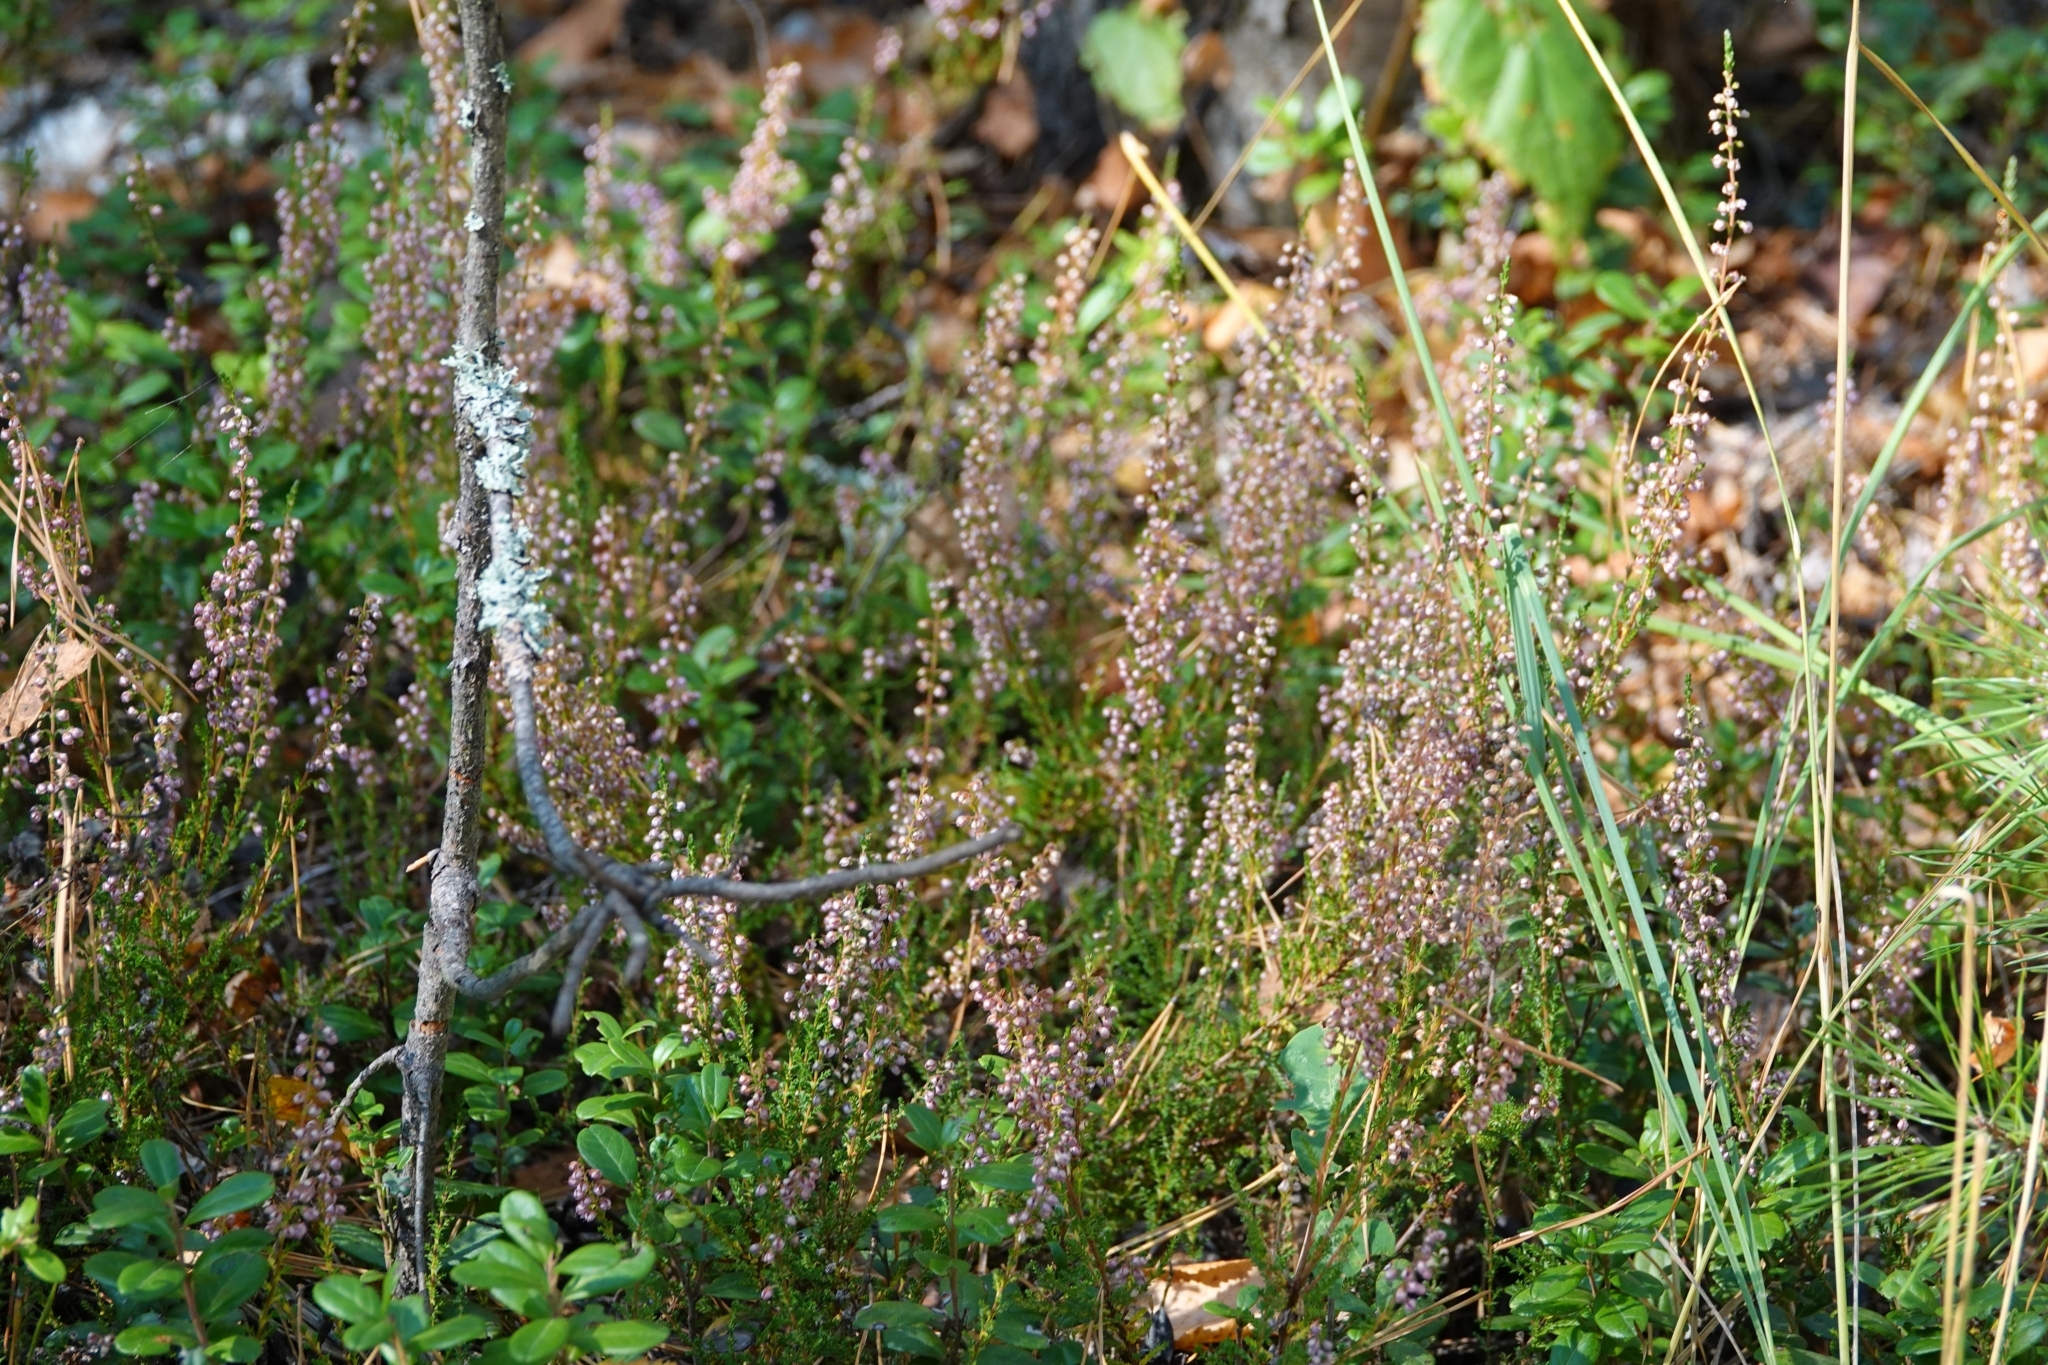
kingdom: Plantae
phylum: Tracheophyta
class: Magnoliopsida
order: Ericales
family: Ericaceae
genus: Calluna
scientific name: Calluna vulgaris
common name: Heather
